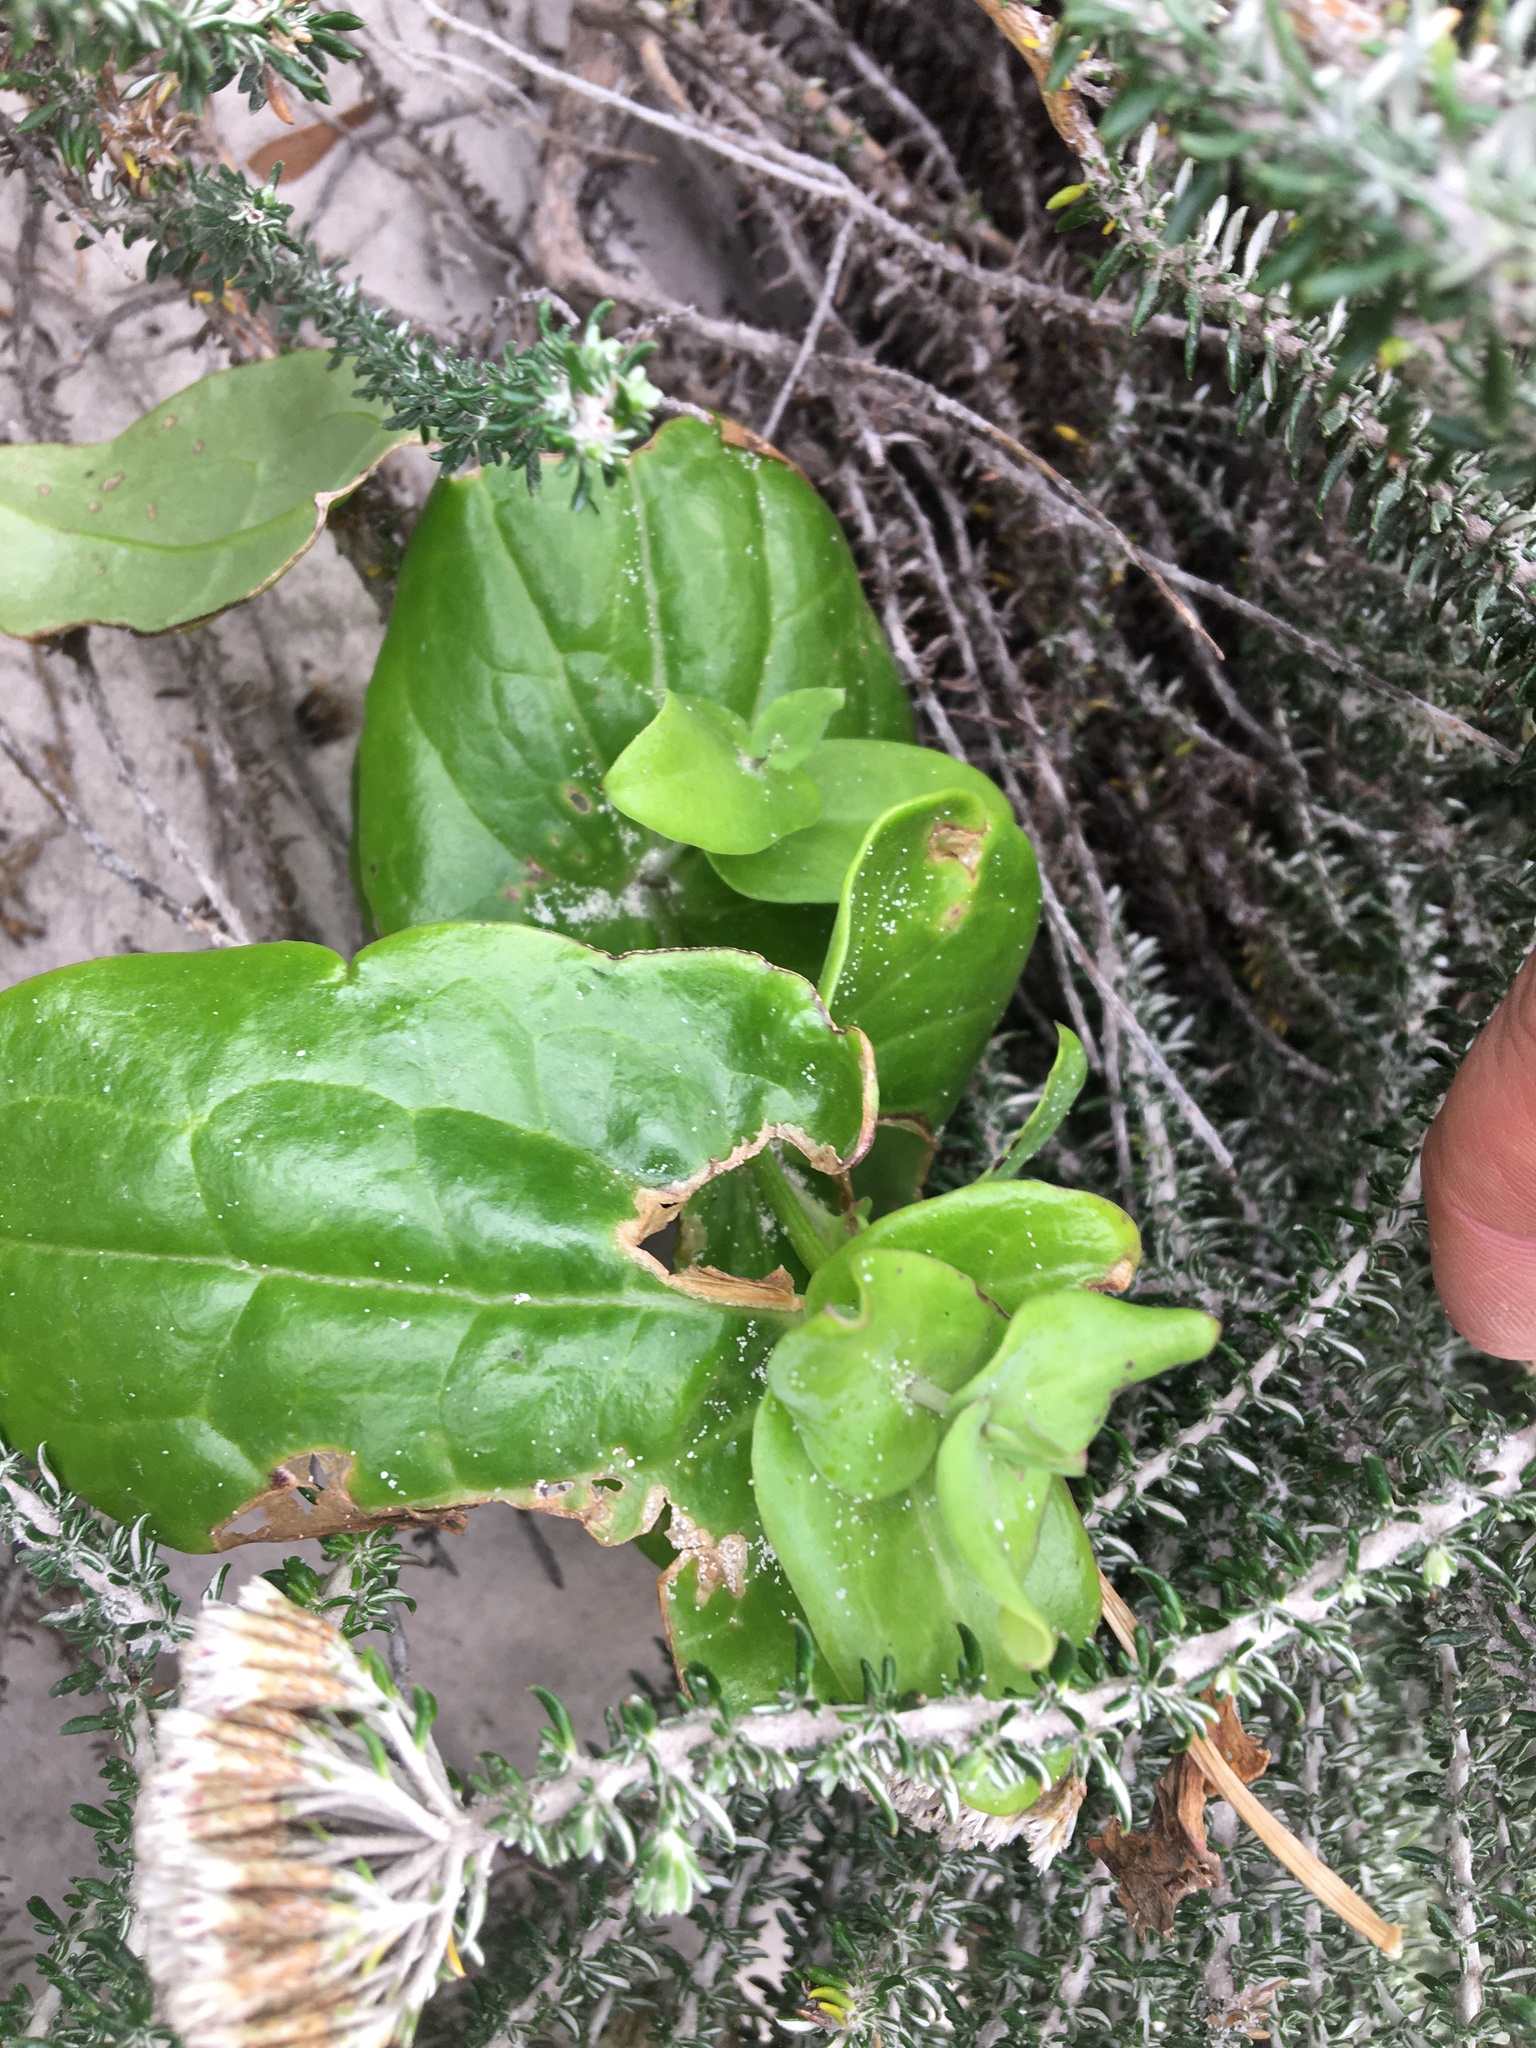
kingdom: Plantae
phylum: Tracheophyta
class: Magnoliopsida
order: Asterales
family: Asteraceae
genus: Othonna
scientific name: Othonna undulosa
